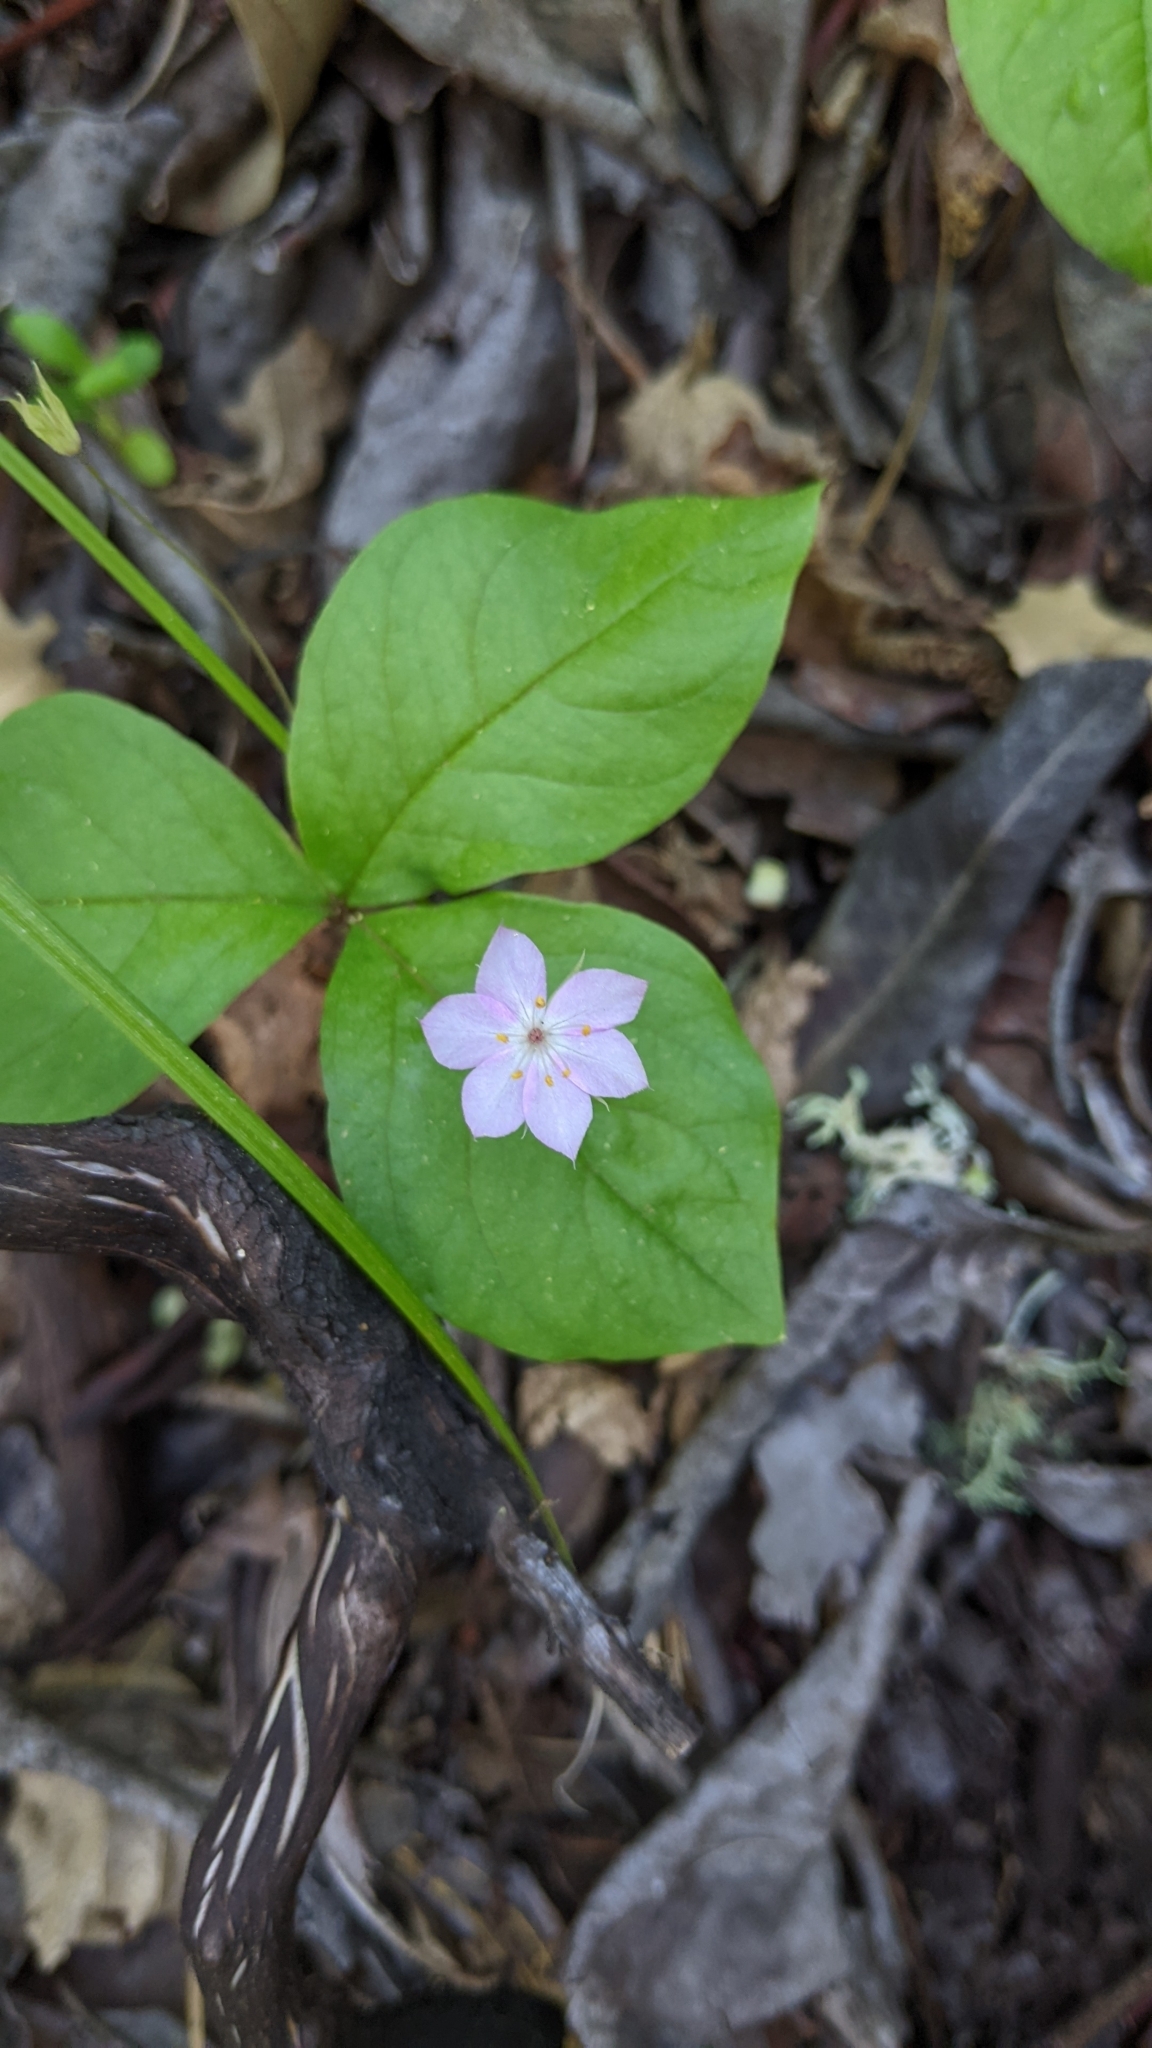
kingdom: Plantae
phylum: Tracheophyta
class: Magnoliopsida
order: Ericales
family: Primulaceae
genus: Lysimachia
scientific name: Lysimachia latifolia
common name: Pacific starflower
